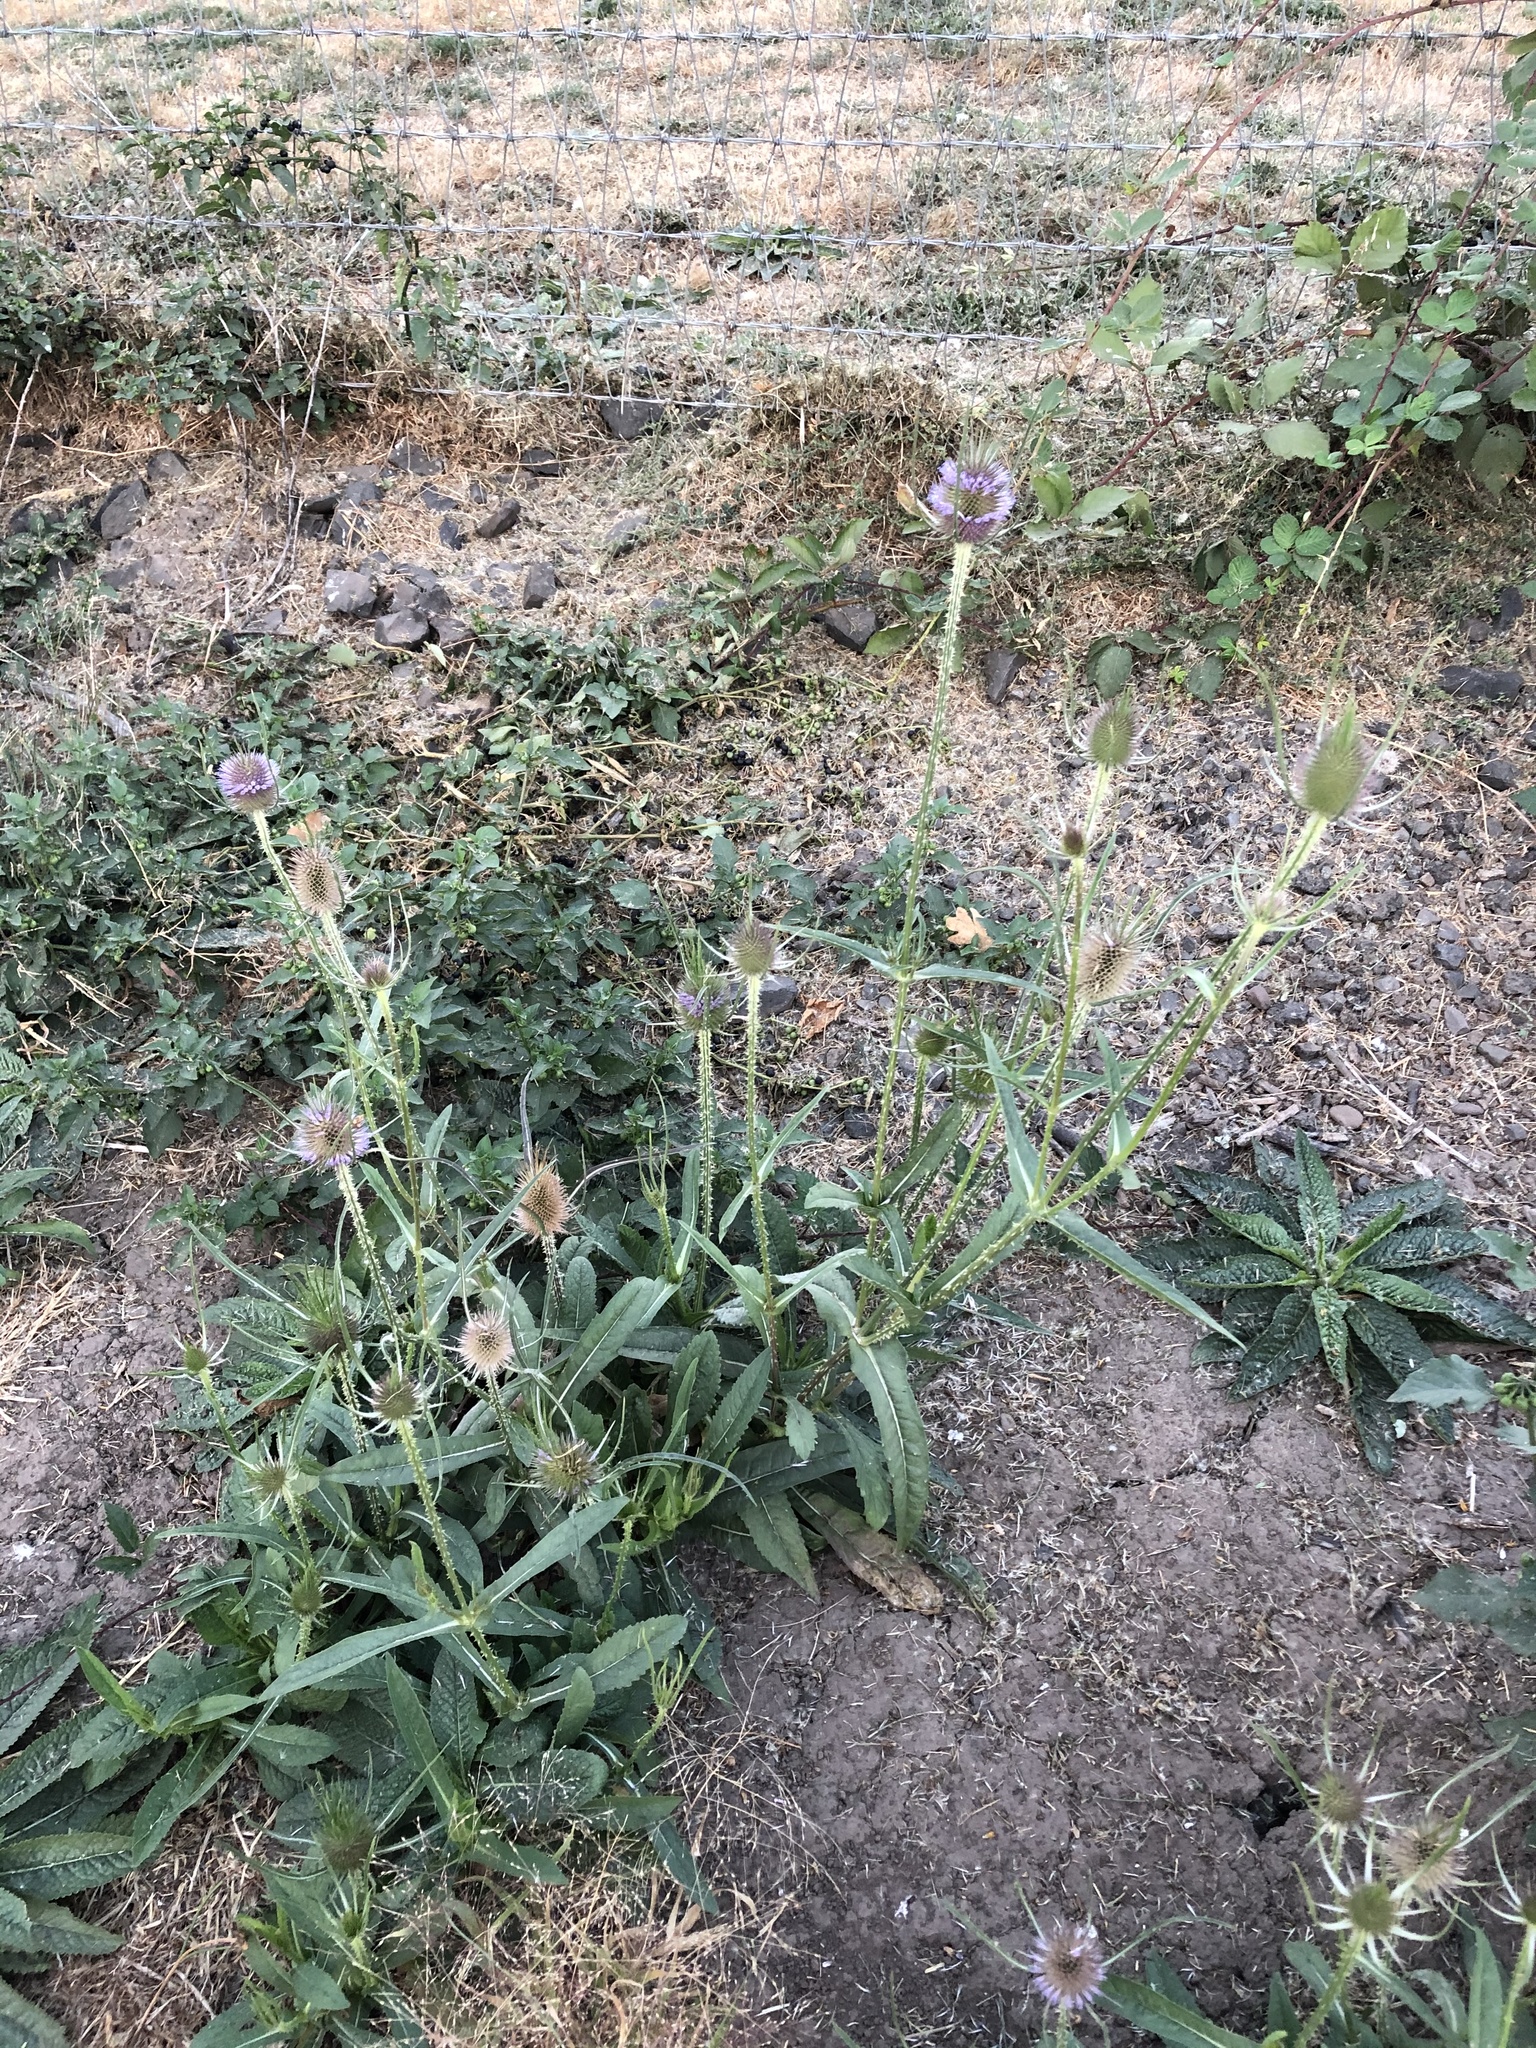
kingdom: Plantae
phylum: Tracheophyta
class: Magnoliopsida
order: Dipsacales
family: Caprifoliaceae
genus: Dipsacus
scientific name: Dipsacus fullonum
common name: Teasel
